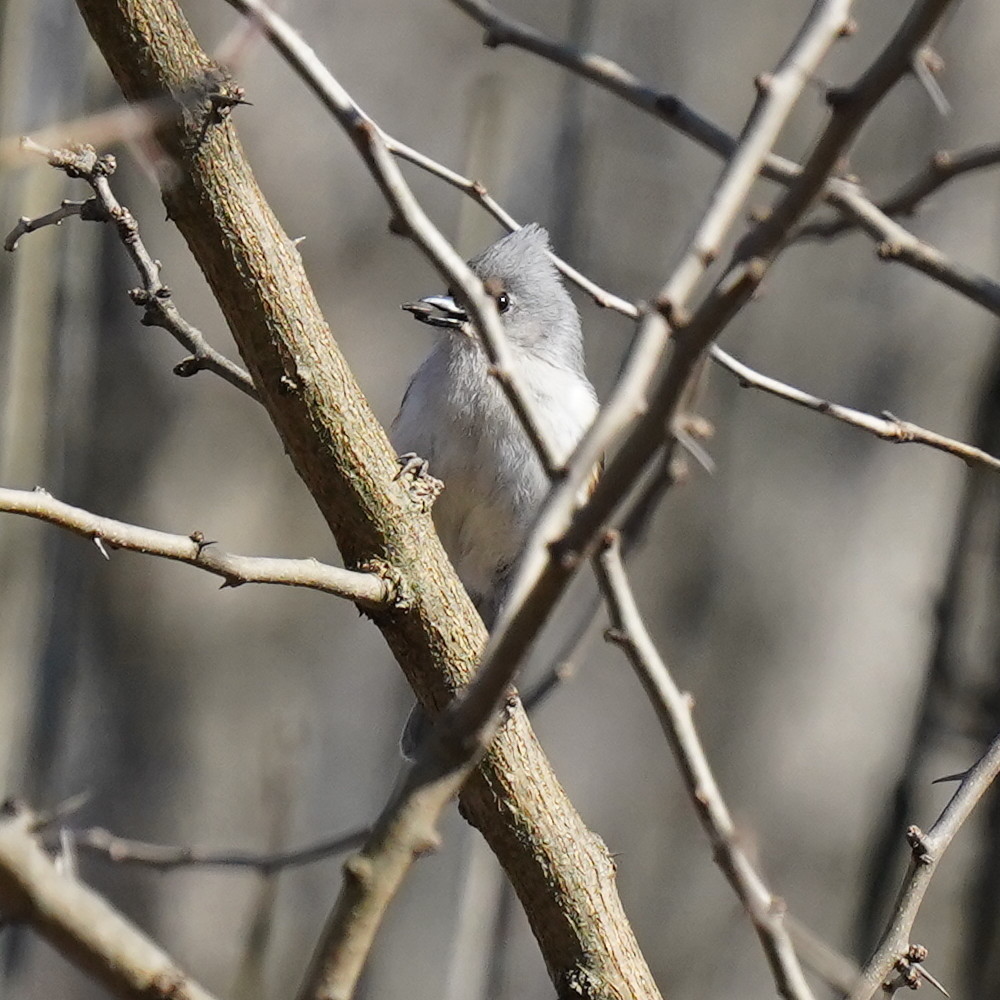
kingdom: Animalia
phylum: Chordata
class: Aves
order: Passeriformes
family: Paridae
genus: Baeolophus
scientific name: Baeolophus bicolor
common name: Tufted titmouse
